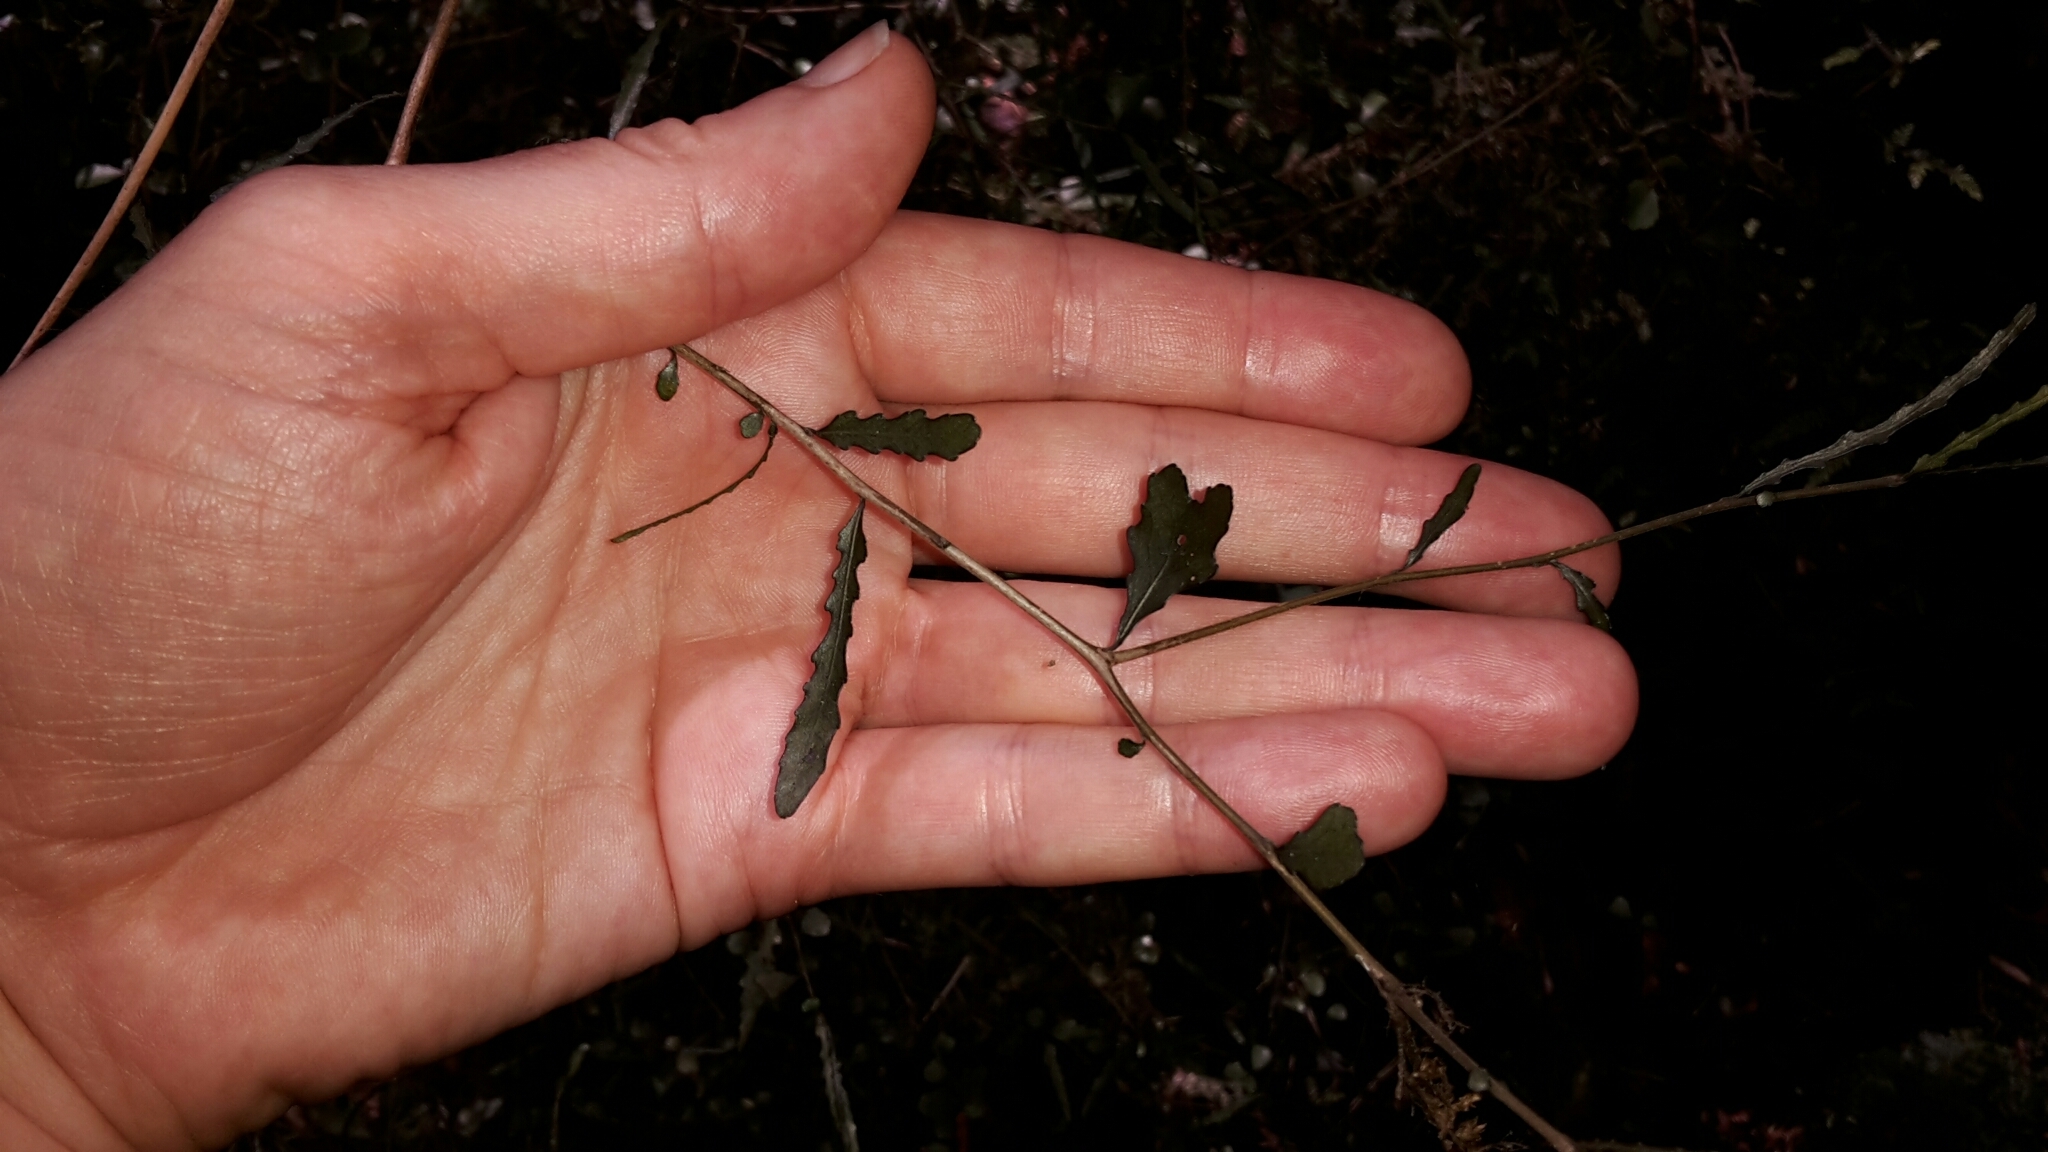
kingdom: Plantae
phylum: Tracheophyta
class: Magnoliopsida
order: Oxalidales
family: Elaeocarpaceae
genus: Elaeocarpus
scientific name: Elaeocarpus hookerianus
